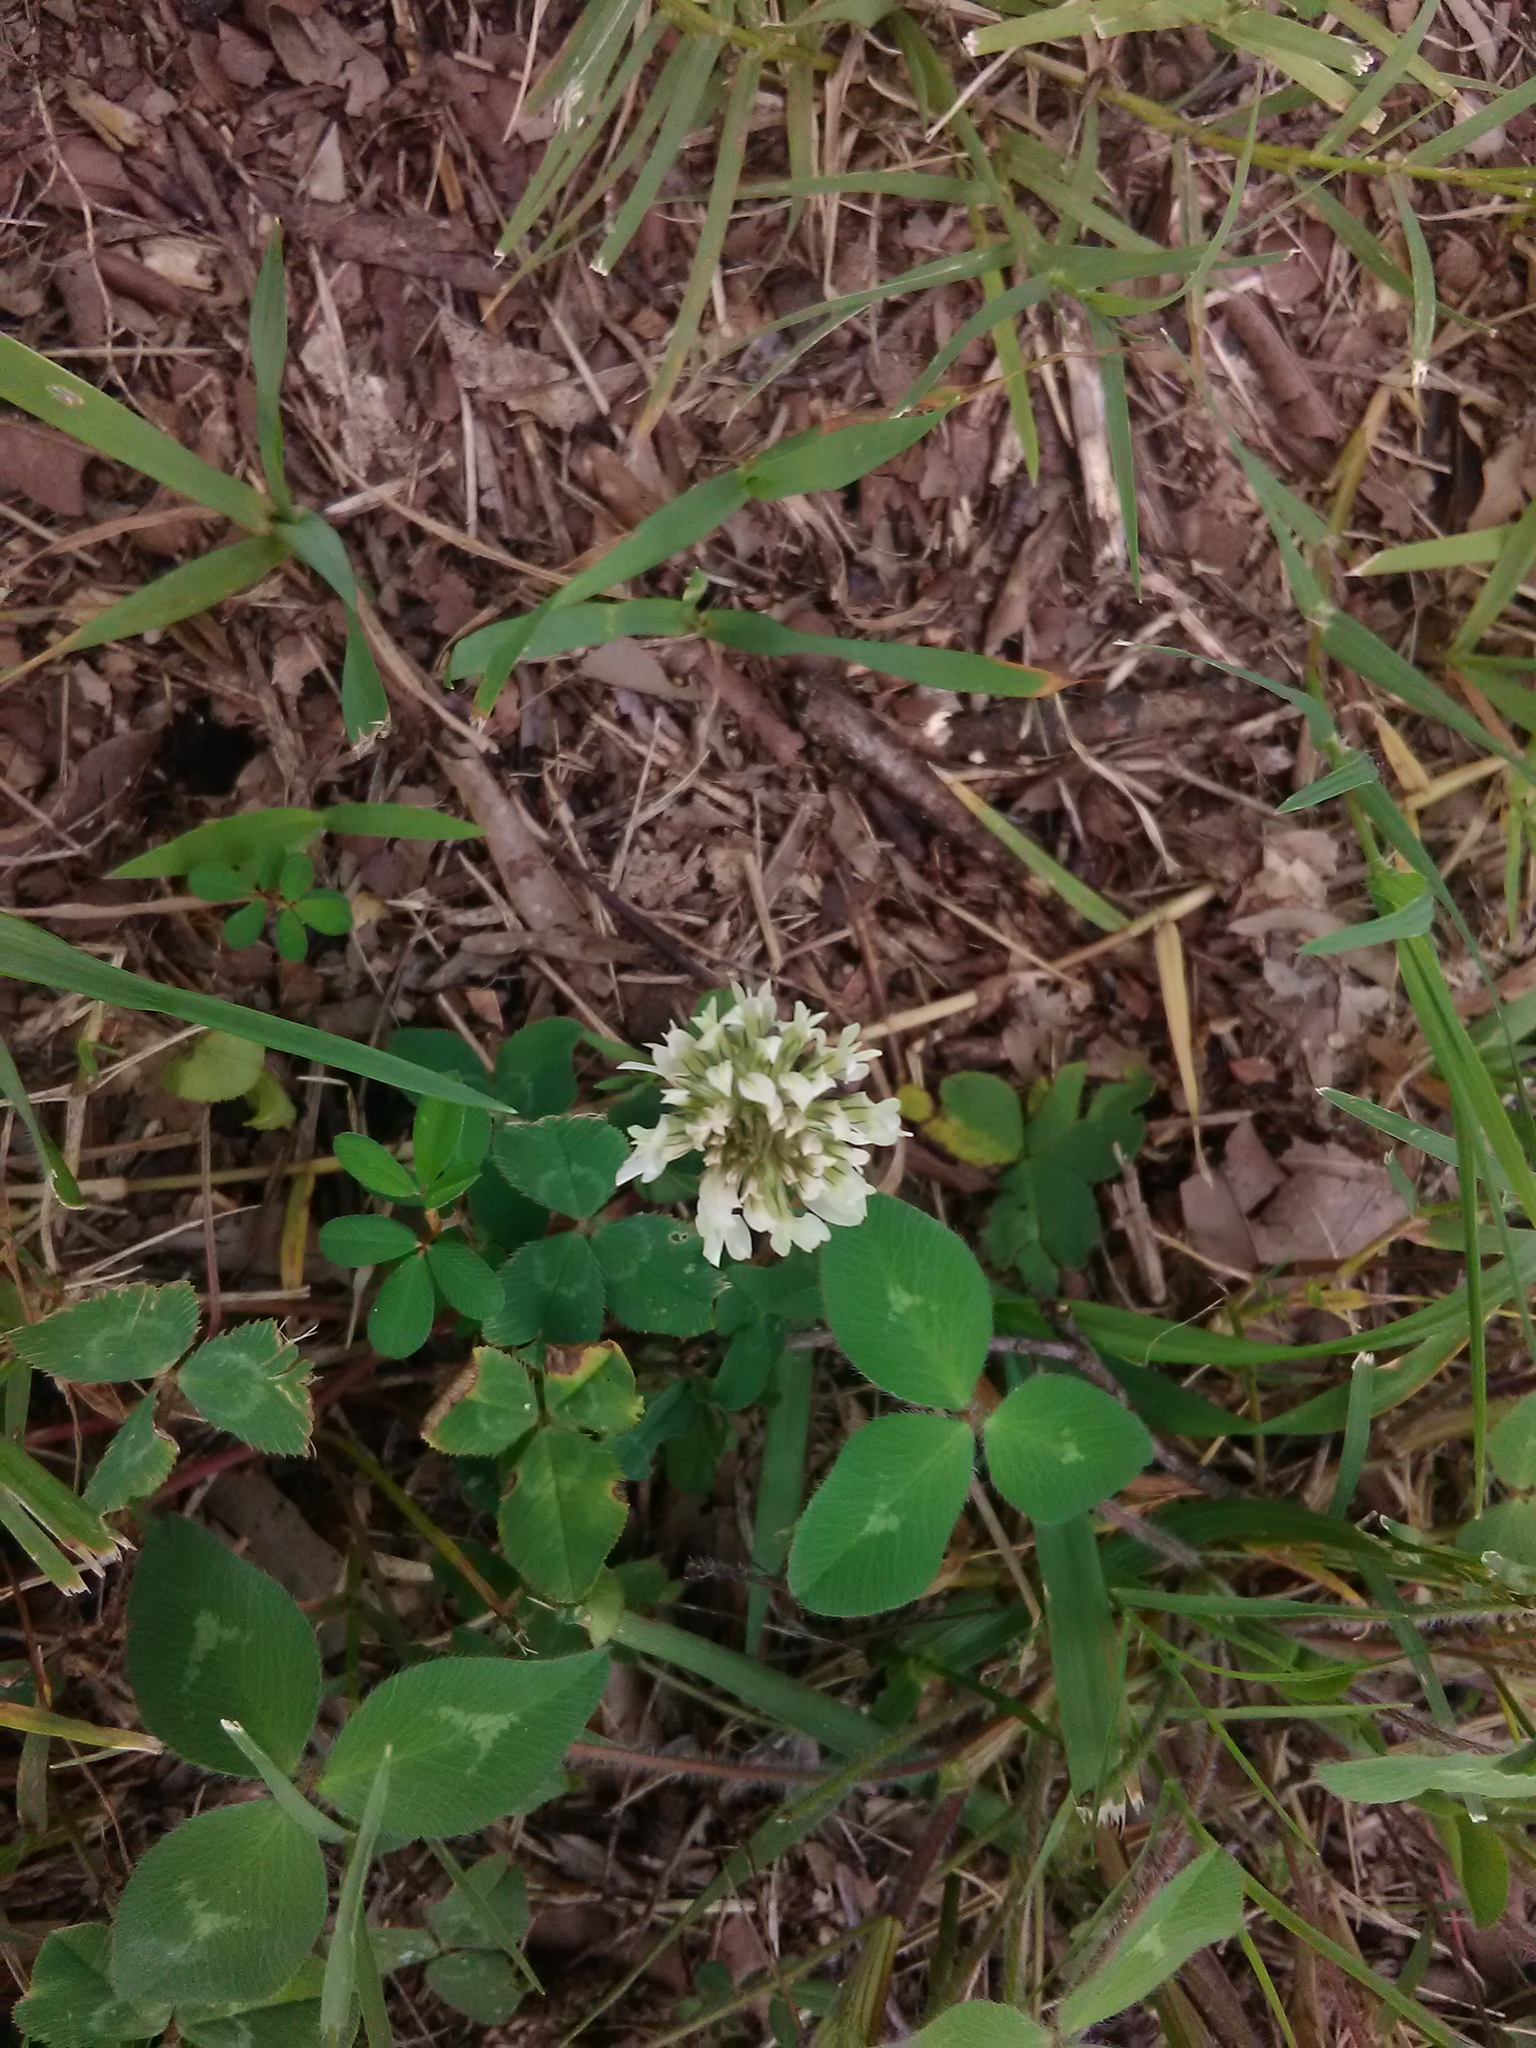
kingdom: Plantae
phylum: Tracheophyta
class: Magnoliopsida
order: Fabales
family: Fabaceae
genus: Trifolium
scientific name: Trifolium repens
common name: White clover
